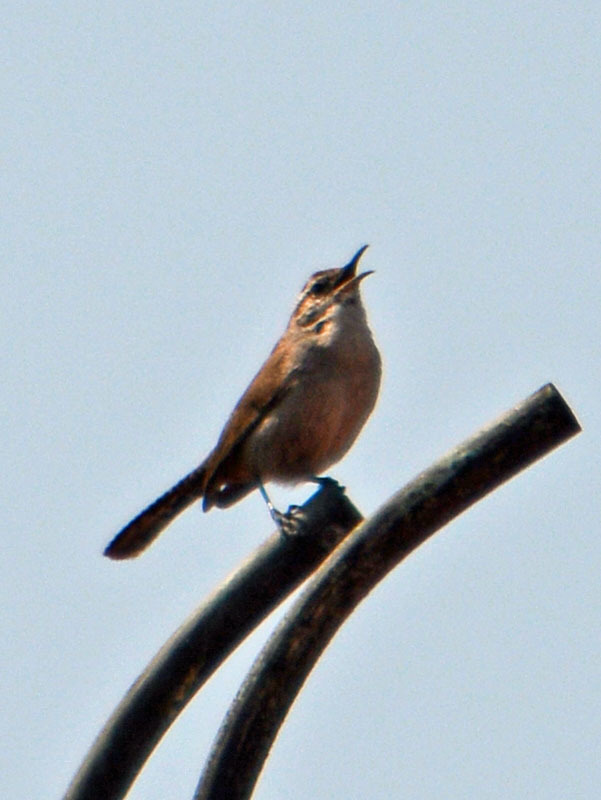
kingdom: Animalia
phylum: Chordata
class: Aves
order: Passeriformes
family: Troglodytidae
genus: Thryomanes
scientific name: Thryomanes bewickii
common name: Bewick's wren
